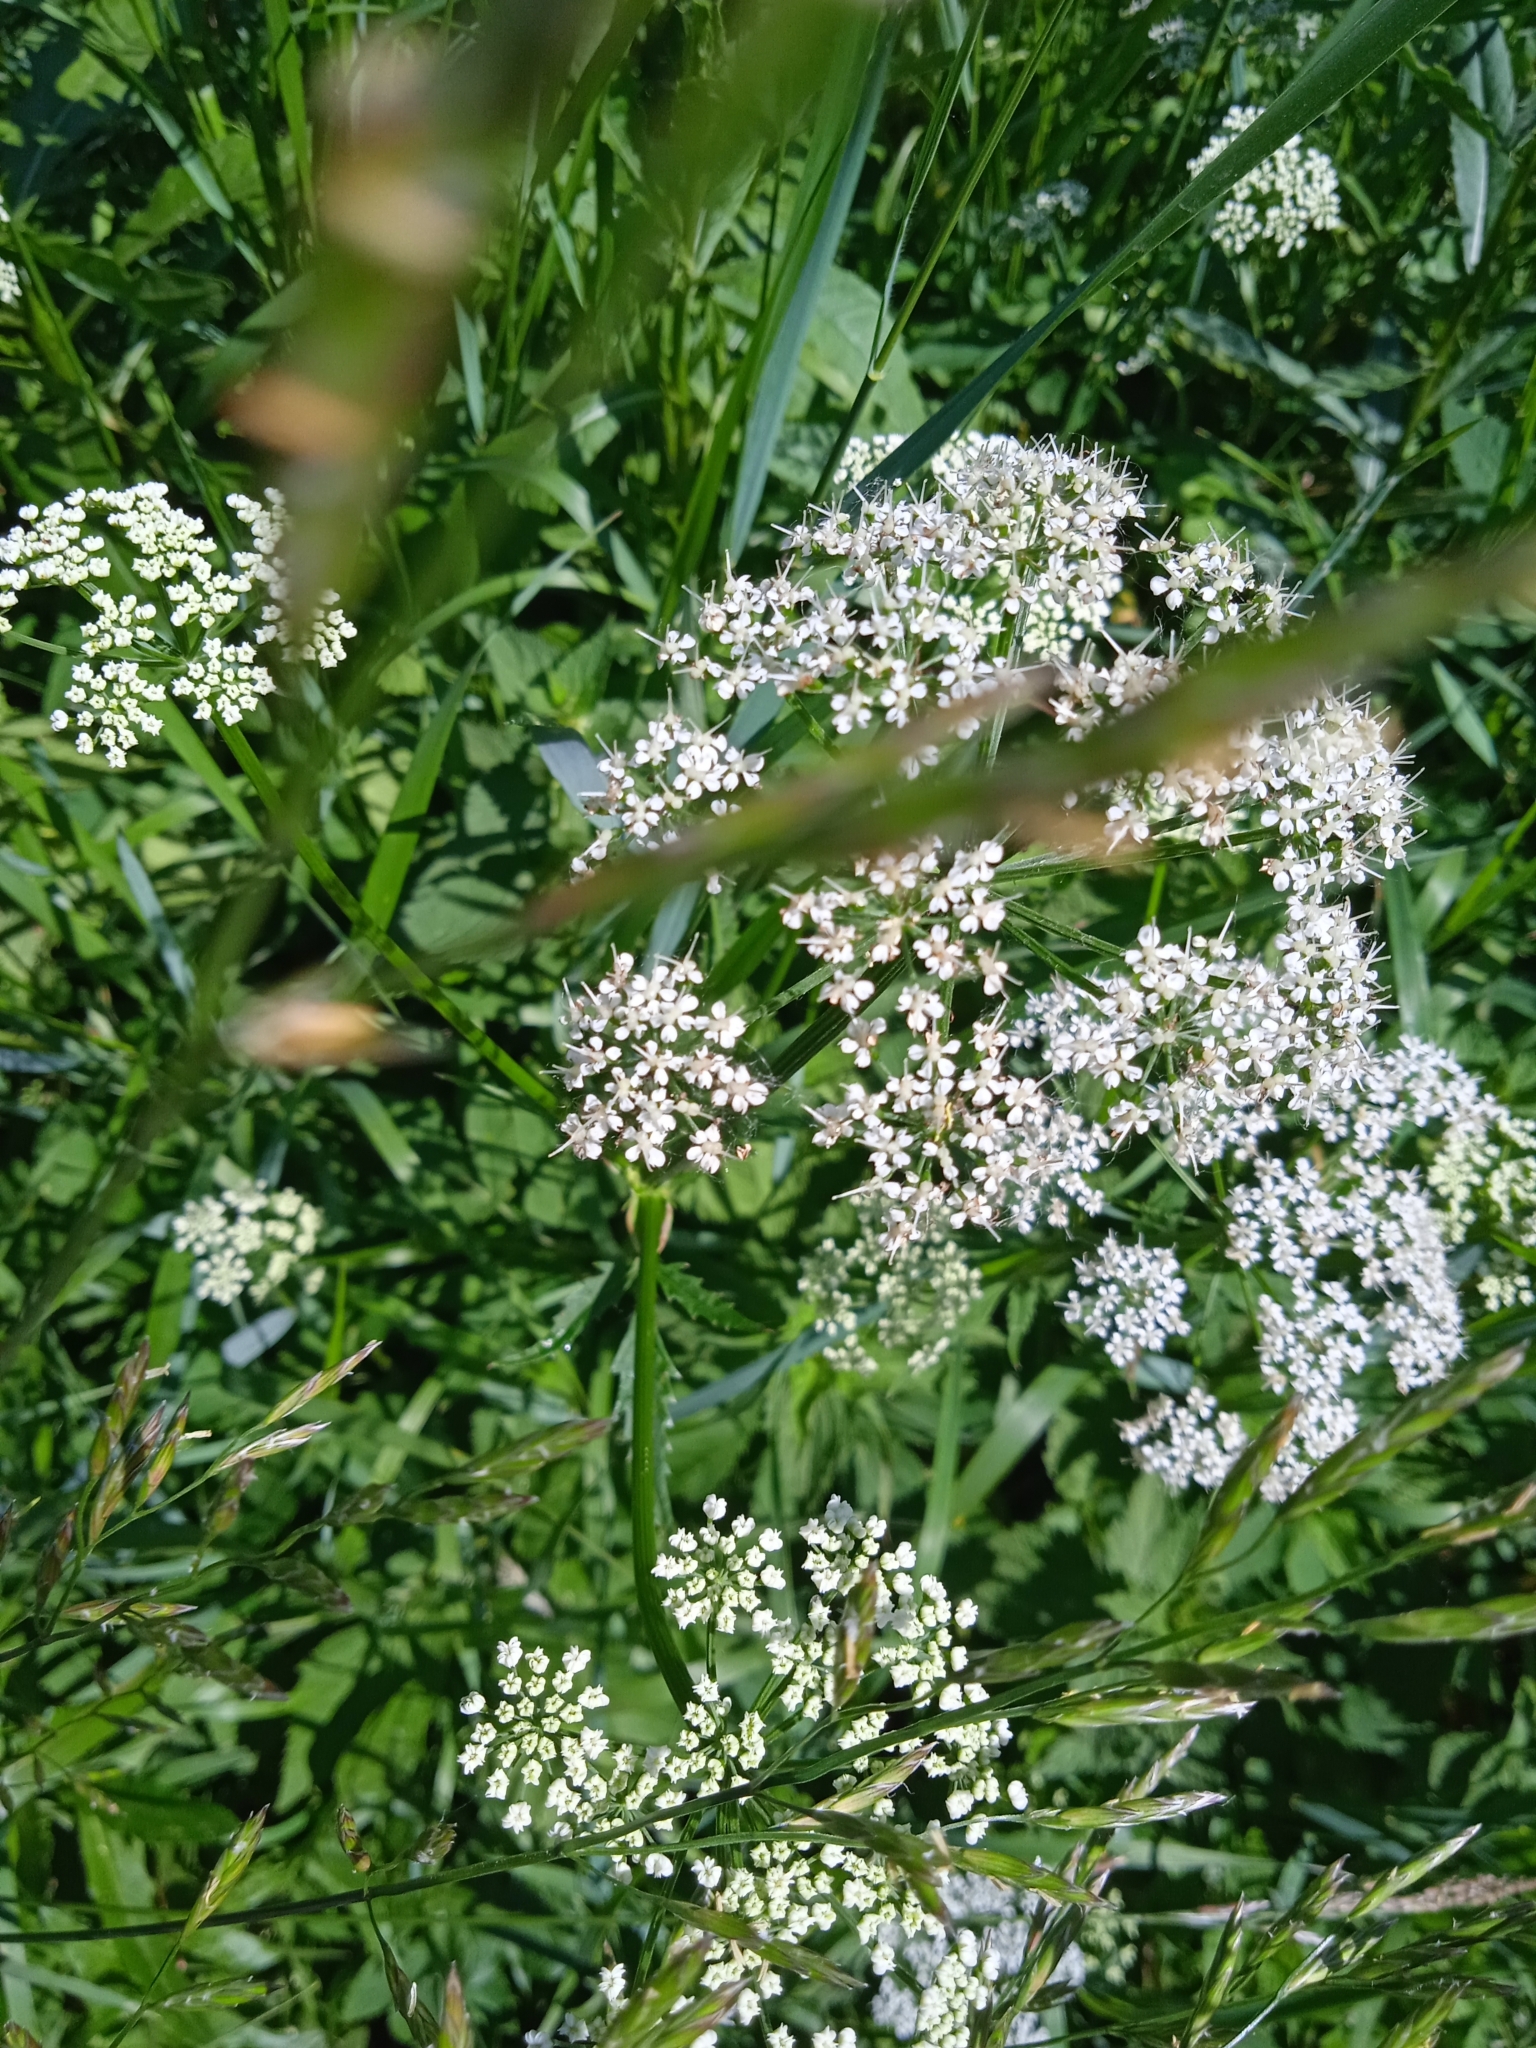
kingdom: Plantae
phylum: Tracheophyta
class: Magnoliopsida
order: Apiales
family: Apiaceae
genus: Aegopodium
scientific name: Aegopodium podagraria
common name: Ground-elder
